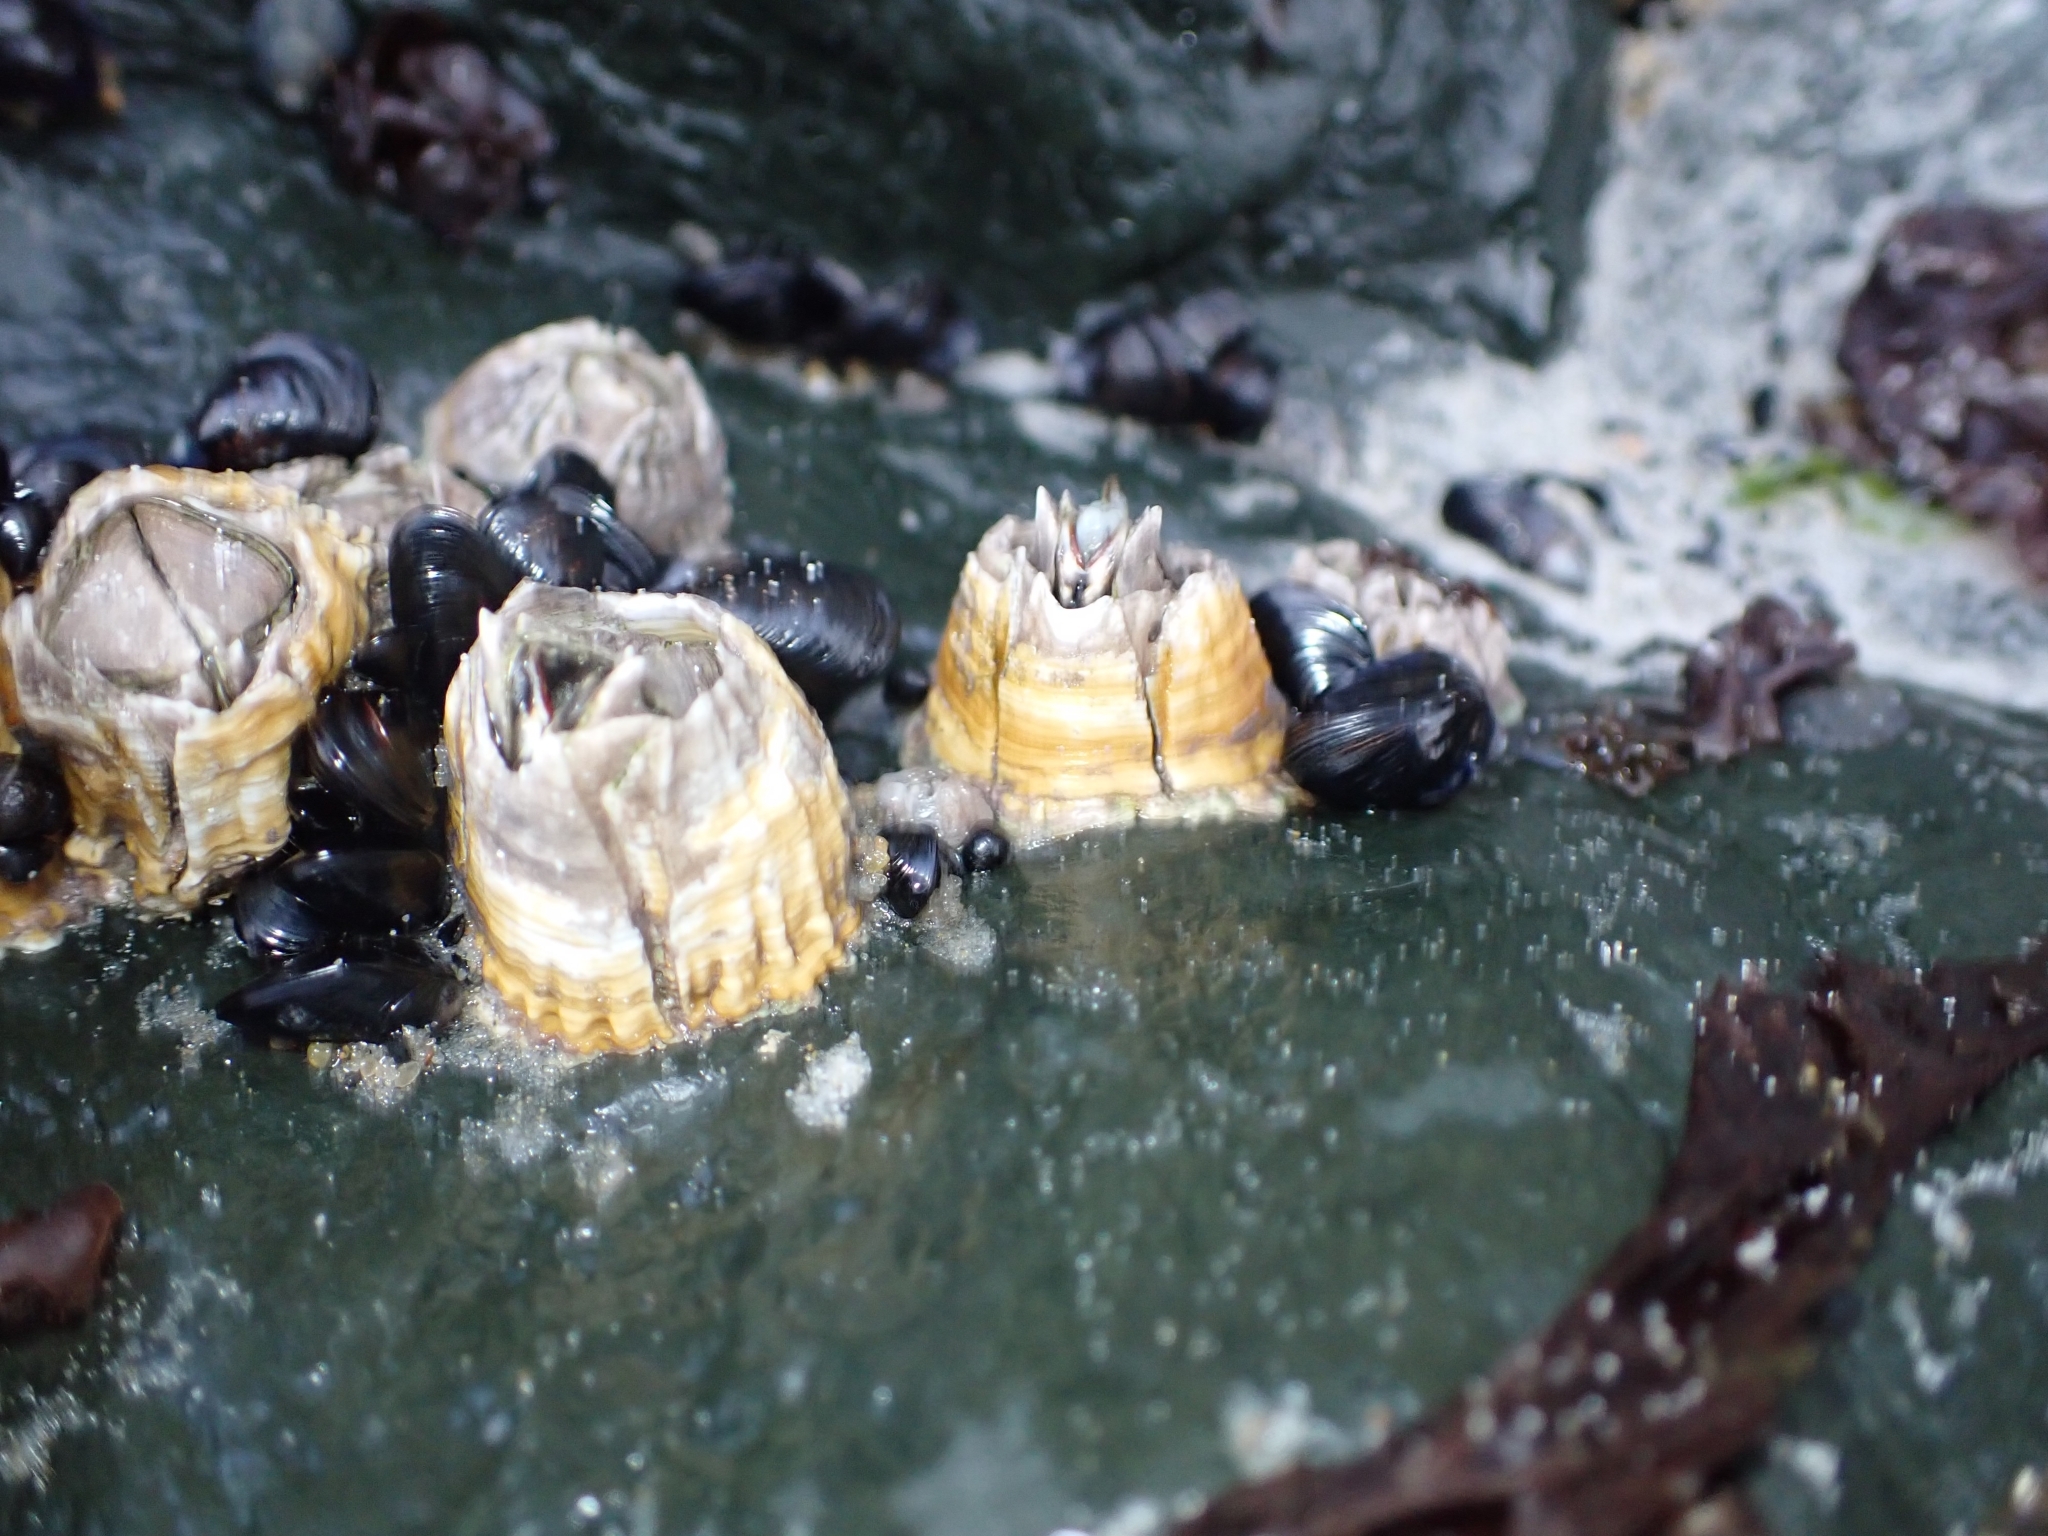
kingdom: Animalia
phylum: Arthropoda
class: Maxillopoda
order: Sessilia
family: Tetraclitidae
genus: Epopella
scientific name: Epopella plicata
